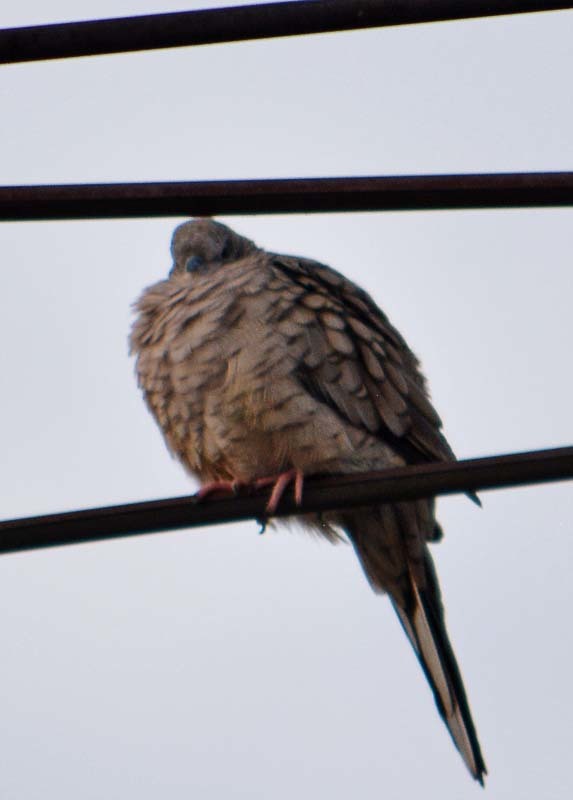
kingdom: Animalia
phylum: Chordata
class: Aves
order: Columbiformes
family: Columbidae
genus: Columbina
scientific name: Columbina inca
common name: Inca dove
